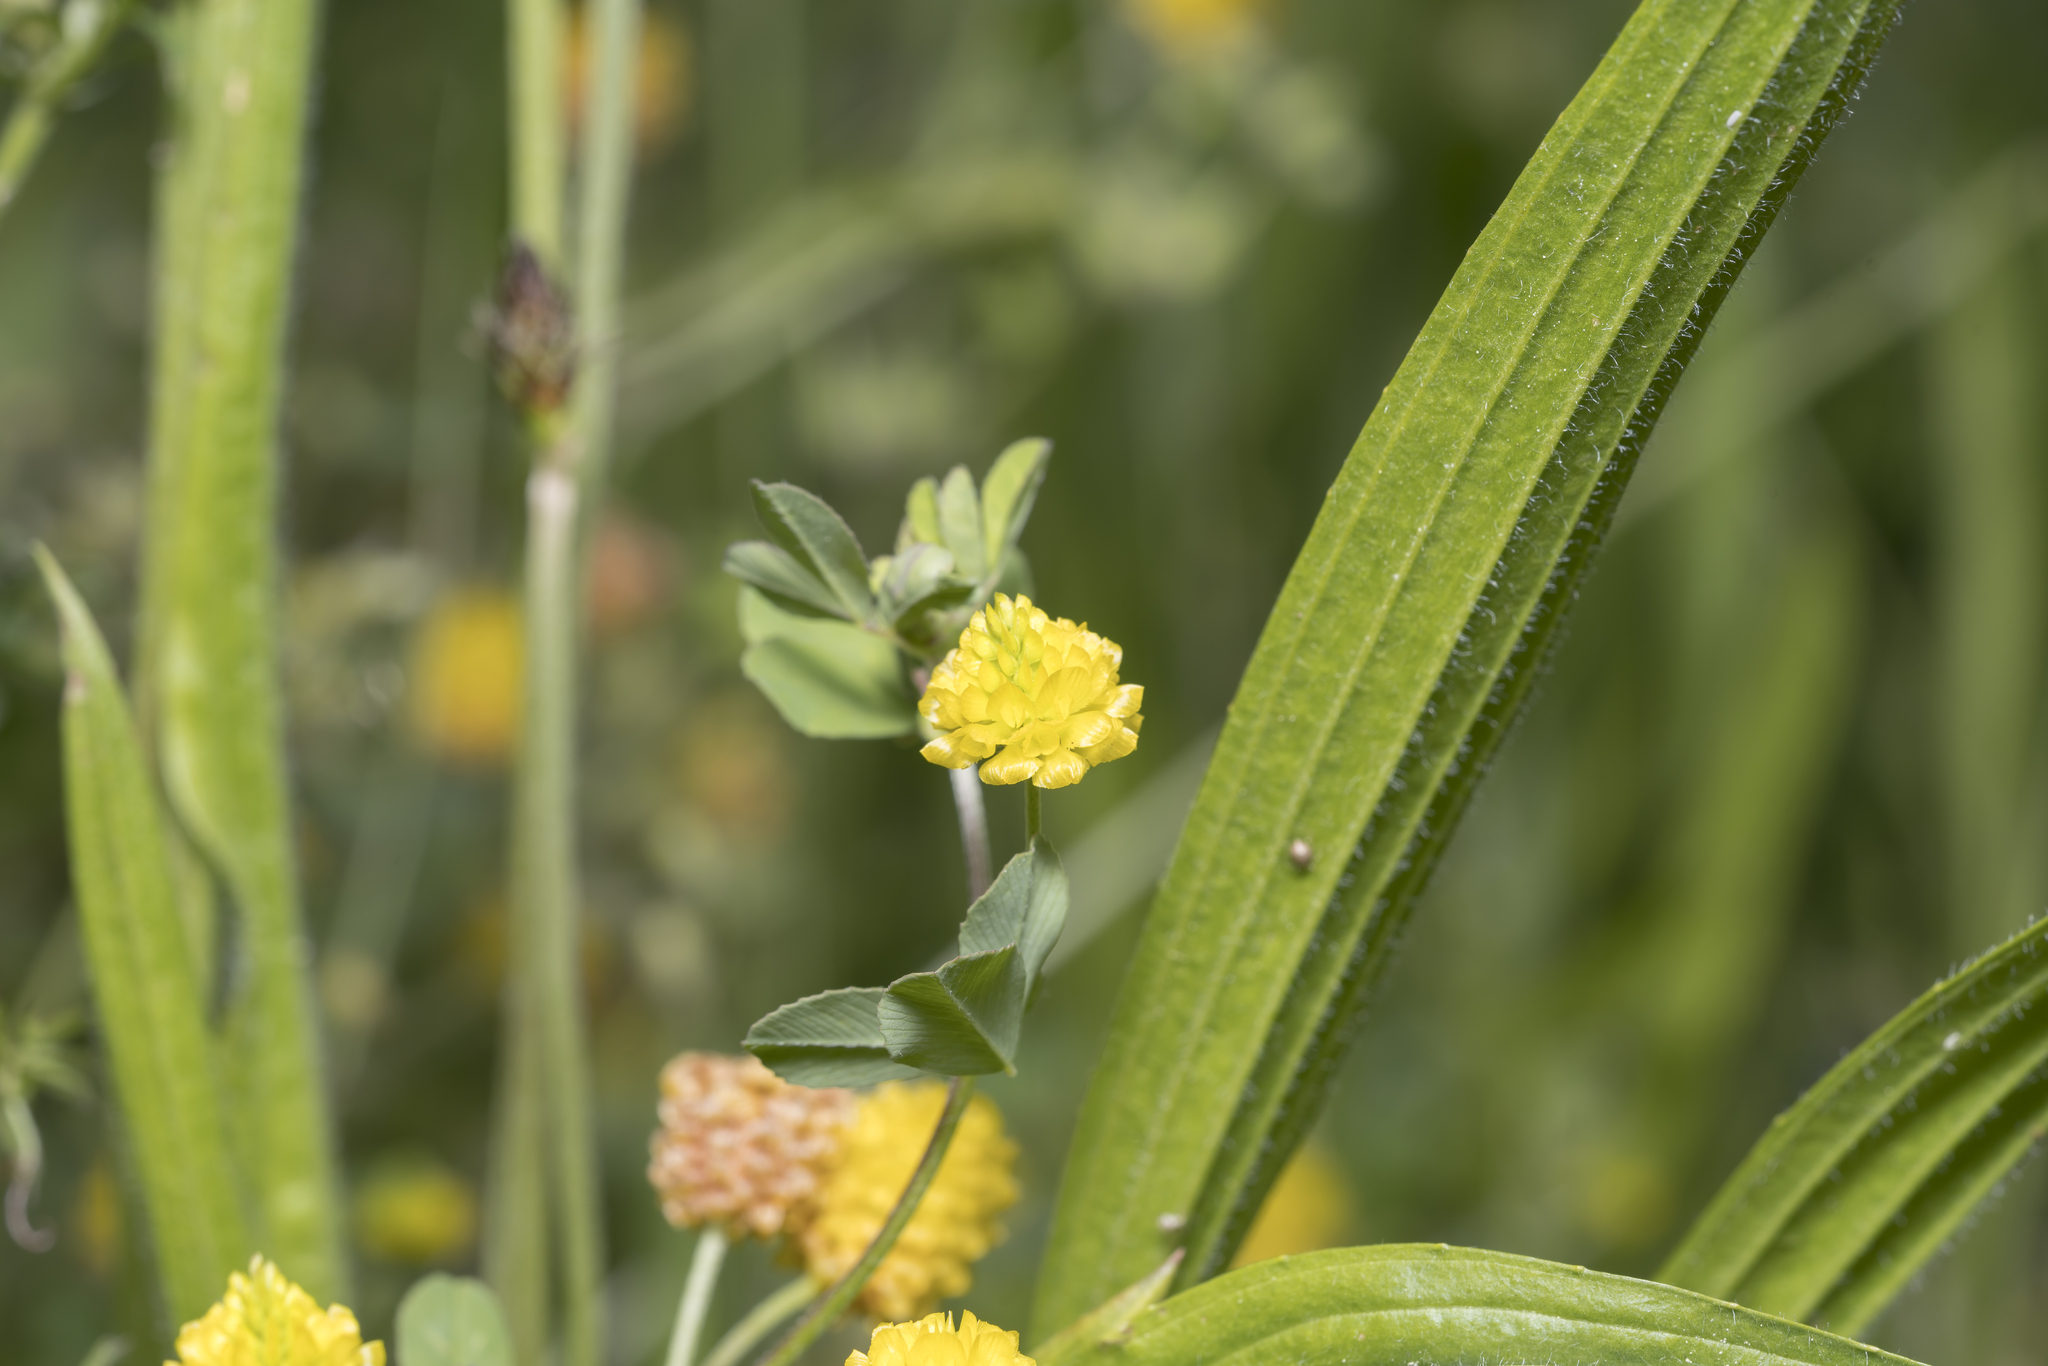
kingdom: Plantae
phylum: Tracheophyta
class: Magnoliopsida
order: Fabales
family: Fabaceae
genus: Trifolium
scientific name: Trifolium campestre
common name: Field clover
